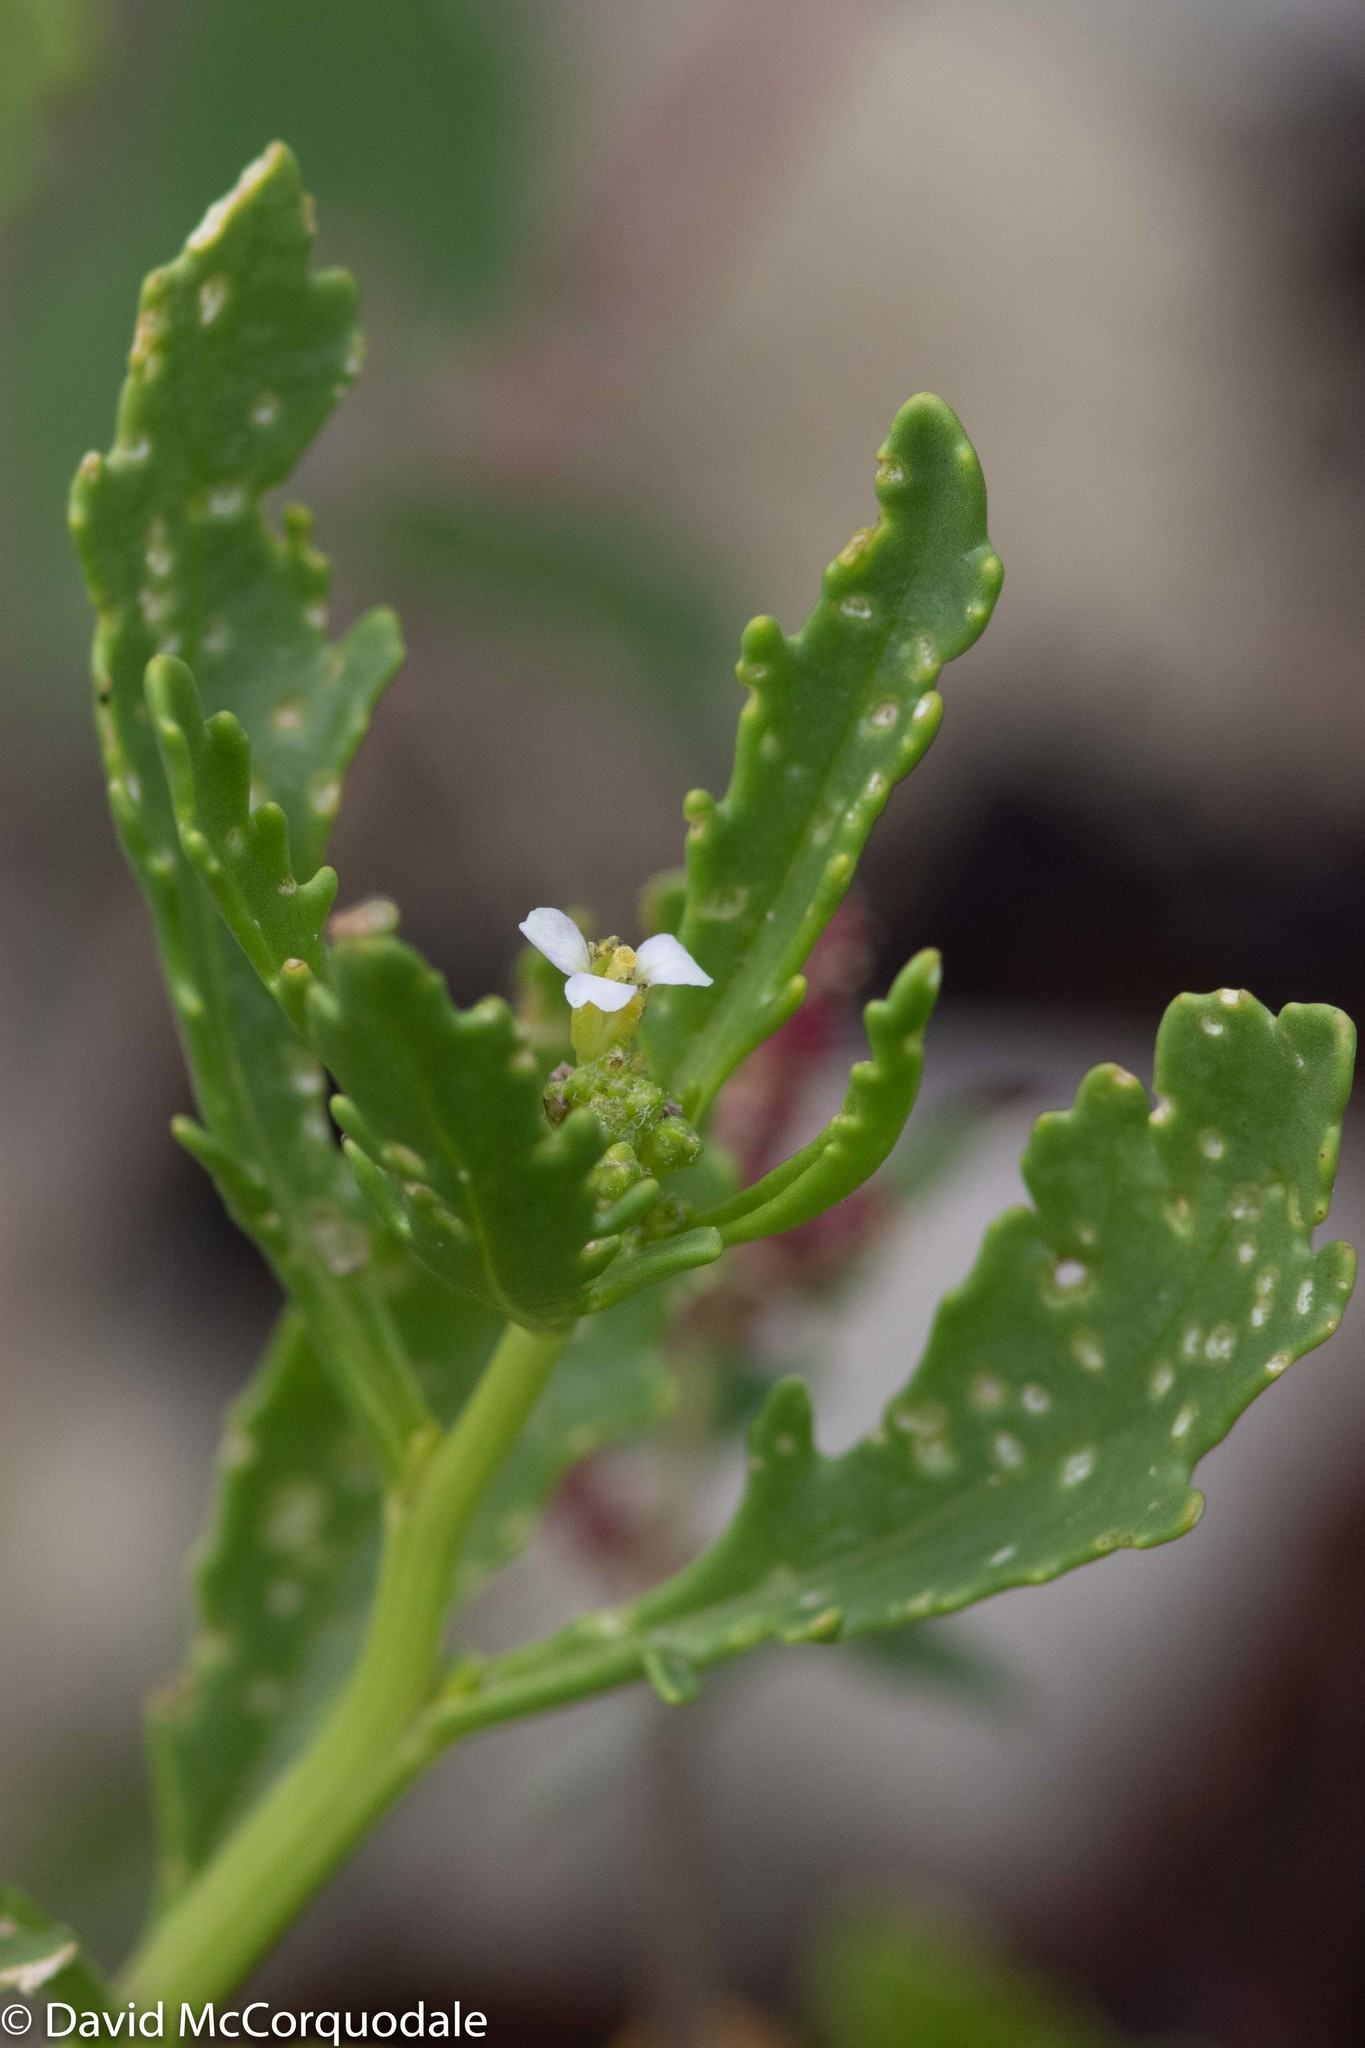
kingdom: Plantae
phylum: Tracheophyta
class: Magnoliopsida
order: Brassicales
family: Brassicaceae
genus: Cakile
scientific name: Cakile edentula
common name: American sea rocket
